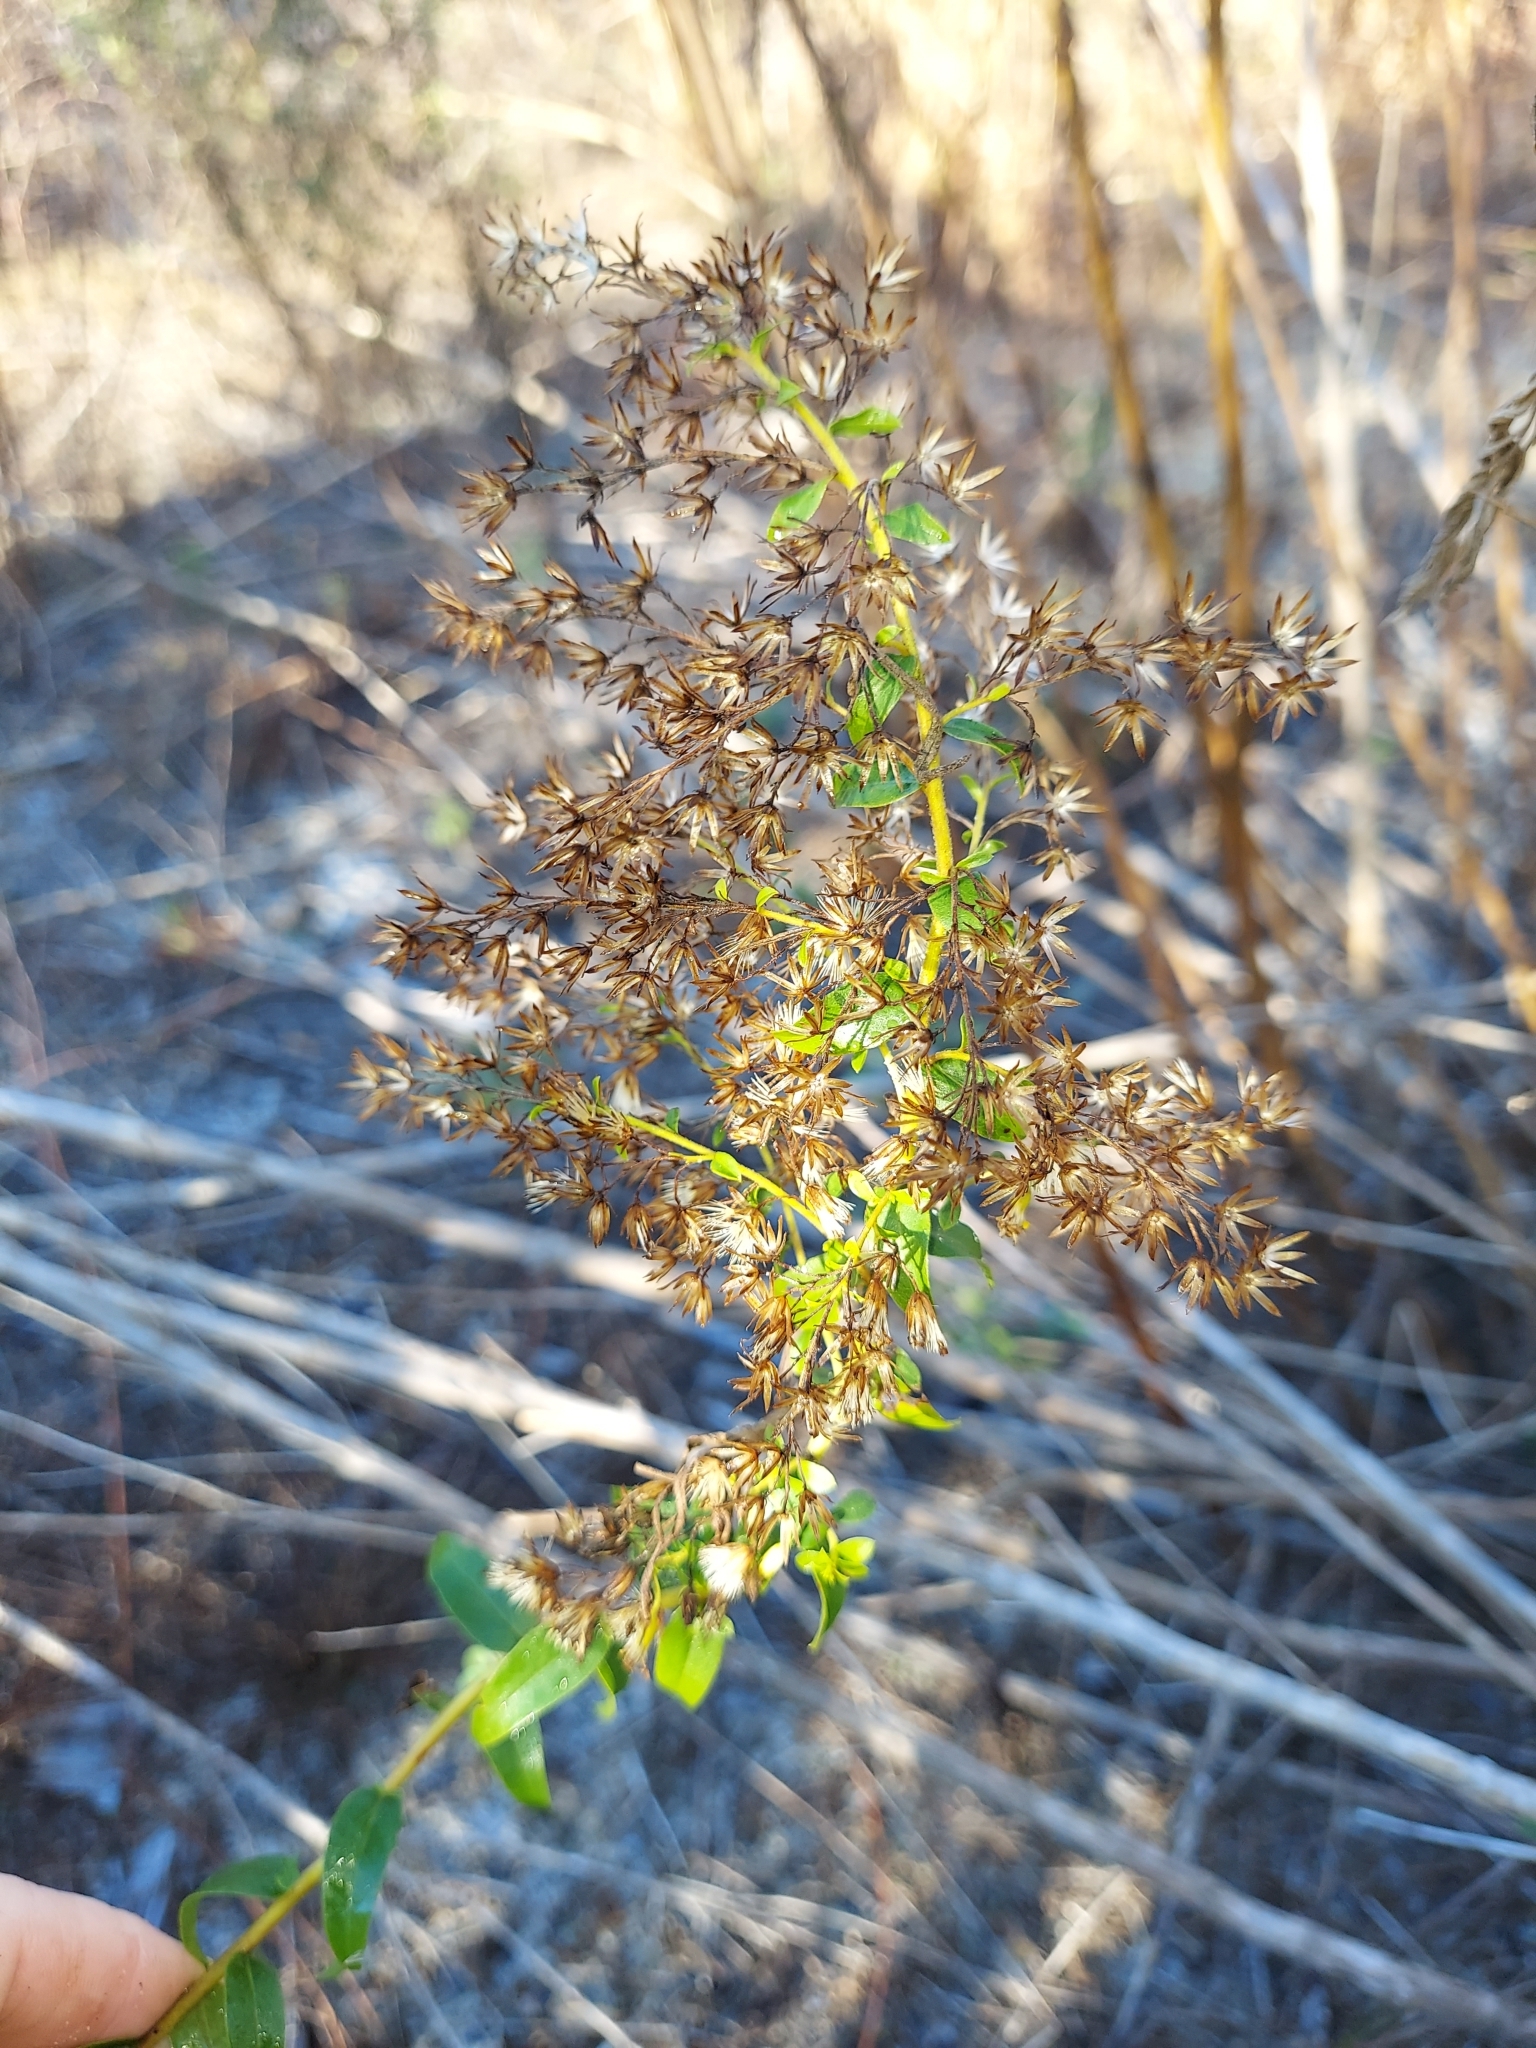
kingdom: Plantae
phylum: Tracheophyta
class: Magnoliopsida
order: Asterales
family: Asteraceae
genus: Solidago
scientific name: Solidago chapmanii
